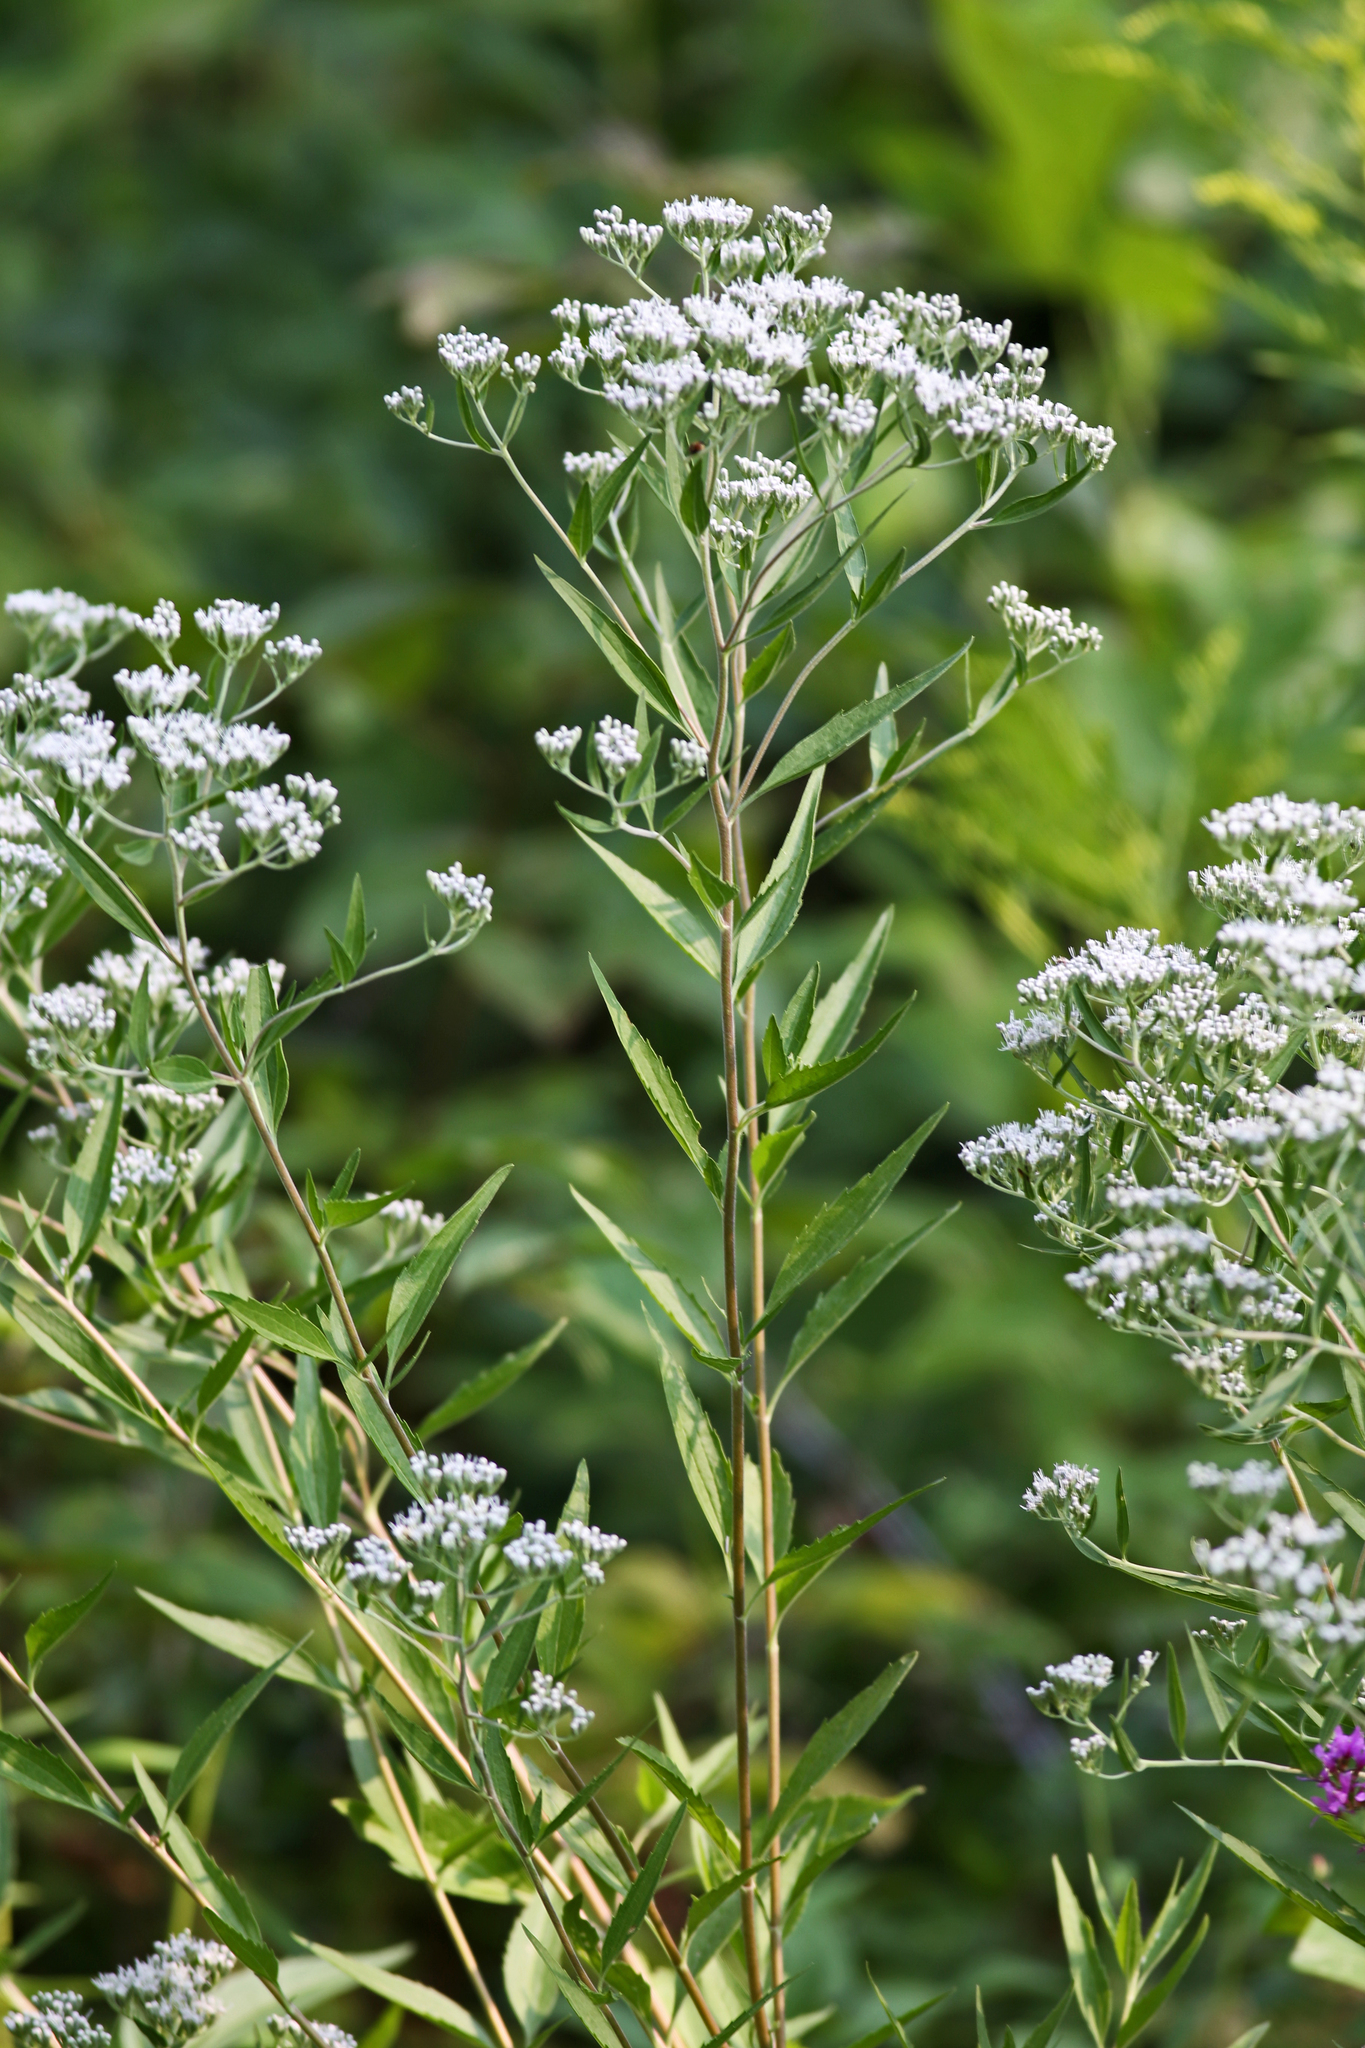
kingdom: Plantae
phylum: Tracheophyta
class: Magnoliopsida
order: Asterales
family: Asteraceae
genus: Eupatorium
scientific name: Eupatorium serotinum
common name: Late boneset
